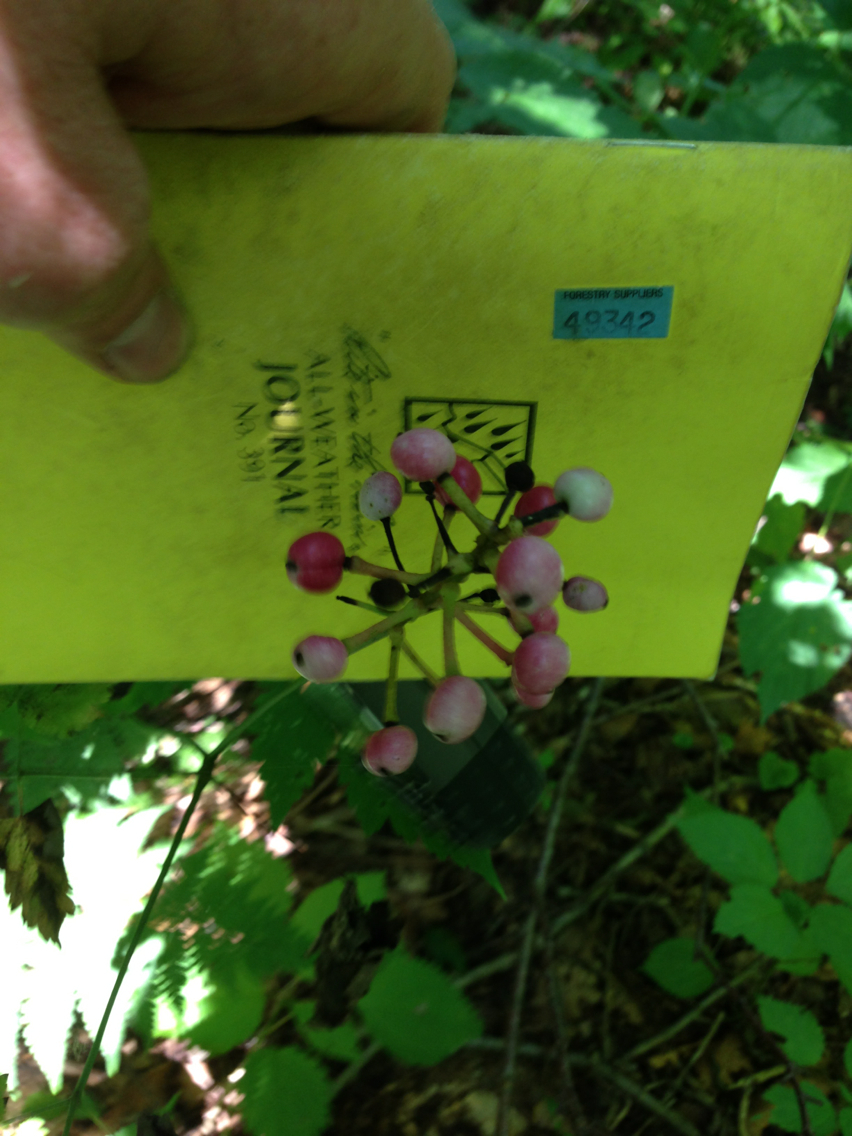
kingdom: Plantae
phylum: Tracheophyta
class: Magnoliopsida
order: Ranunculales
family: Ranunculaceae
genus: Actaea
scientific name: Actaea pachypoda
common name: Doll's-eyes
